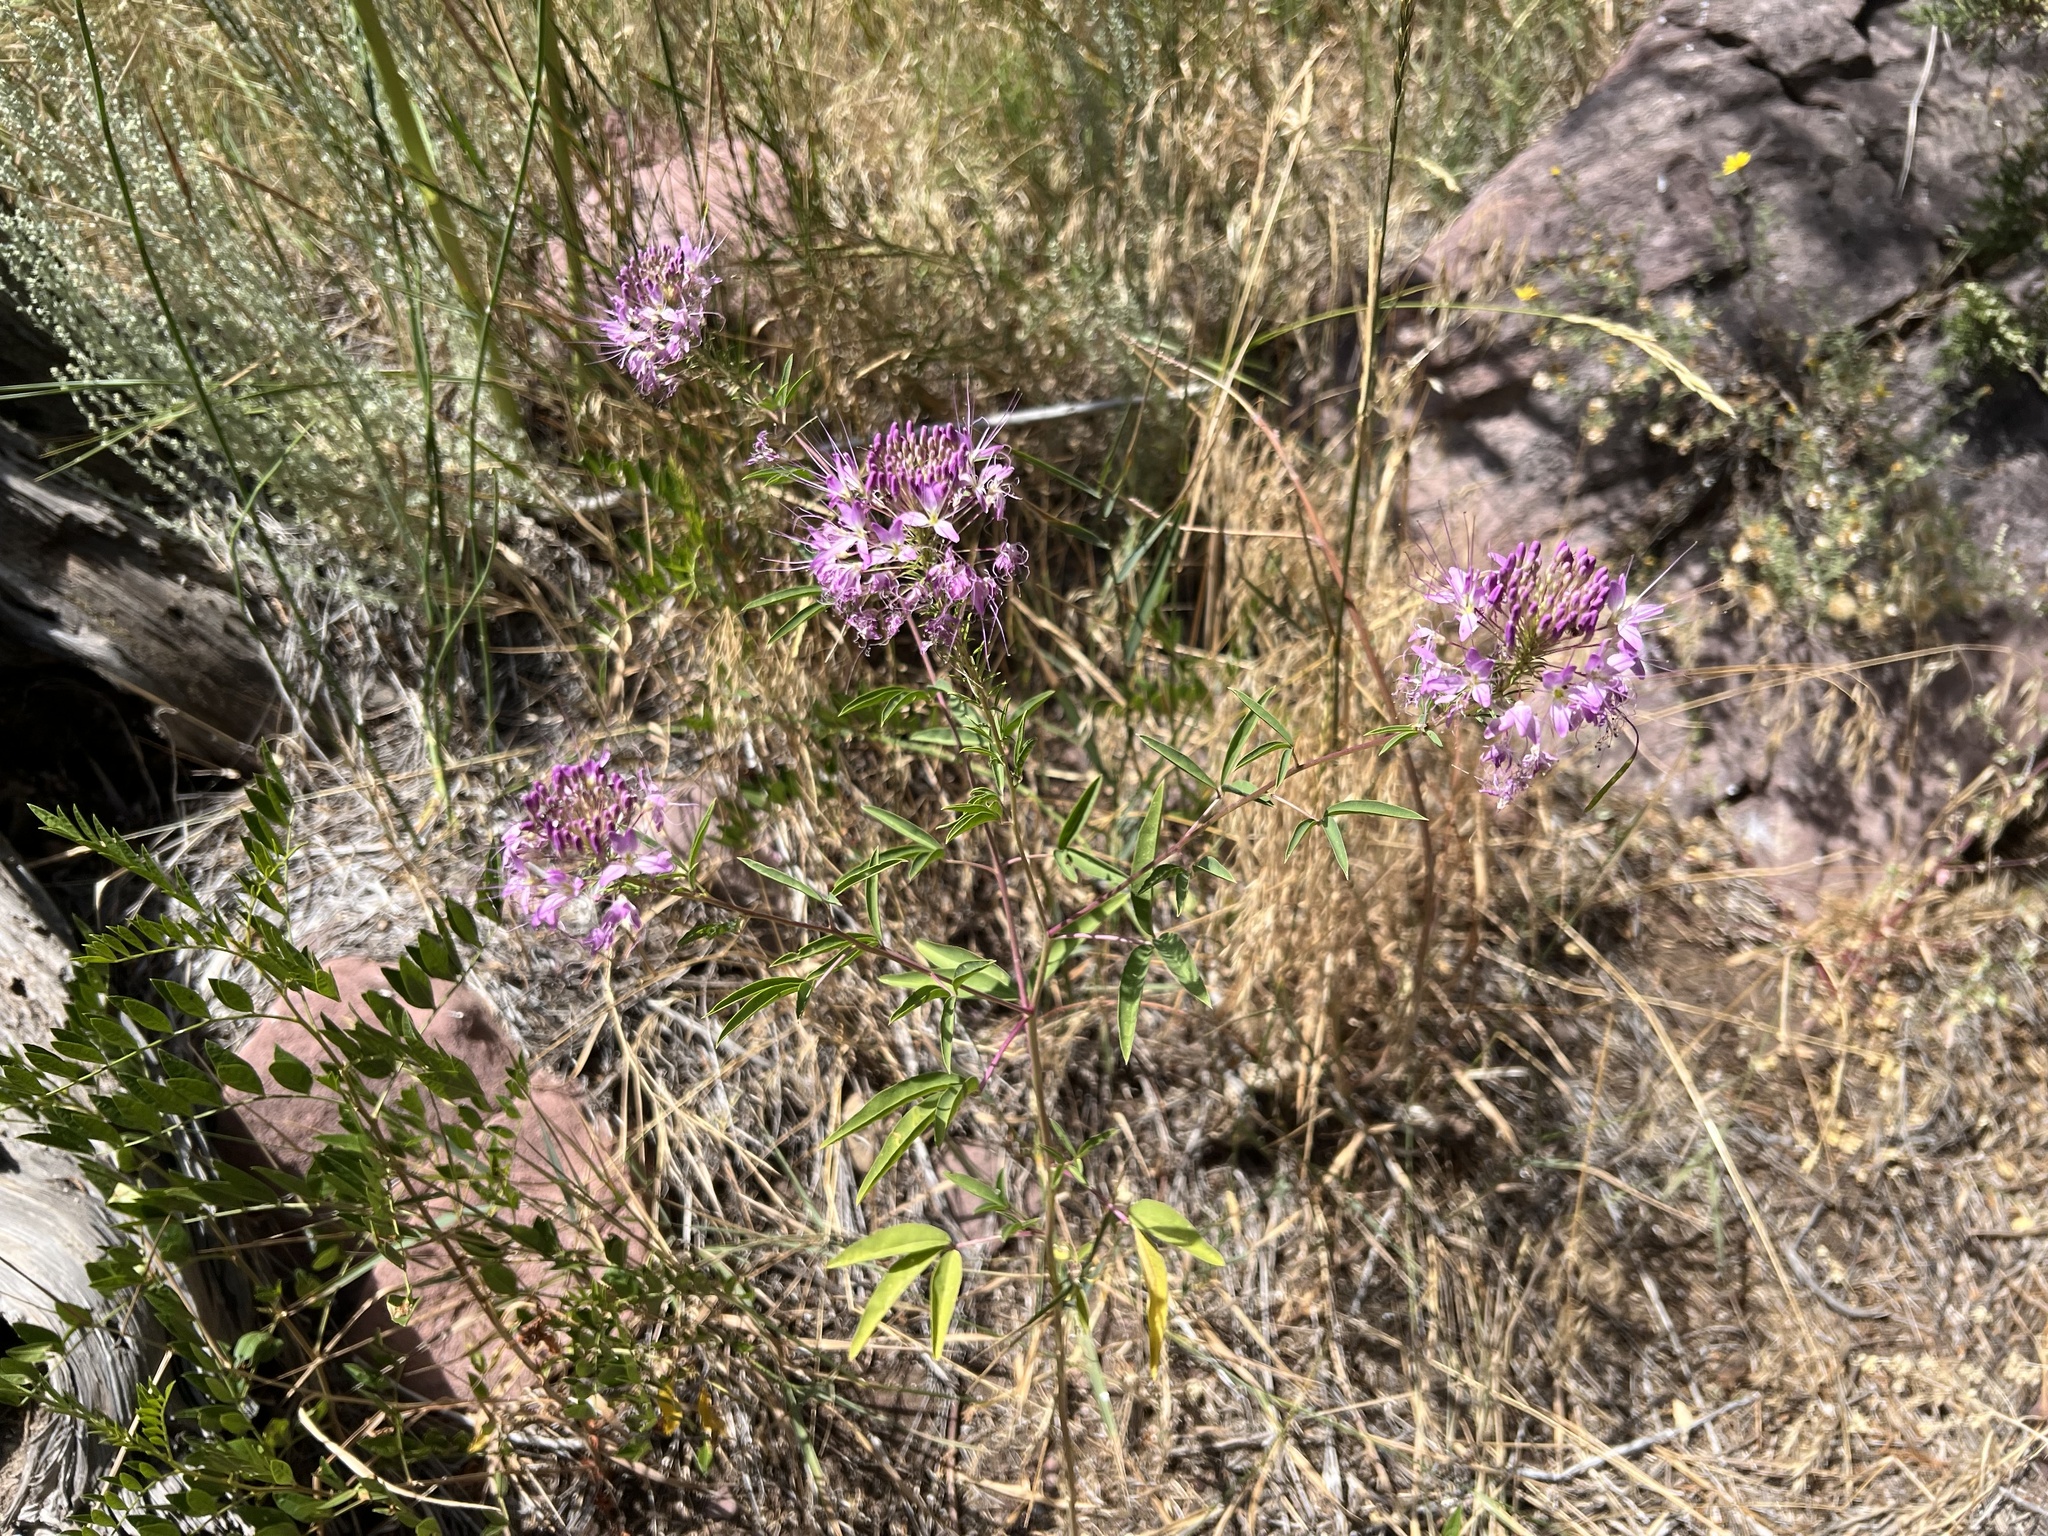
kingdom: Plantae
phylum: Tracheophyta
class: Magnoliopsida
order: Brassicales
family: Cleomaceae
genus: Cleomella
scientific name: Cleomella serrulata
